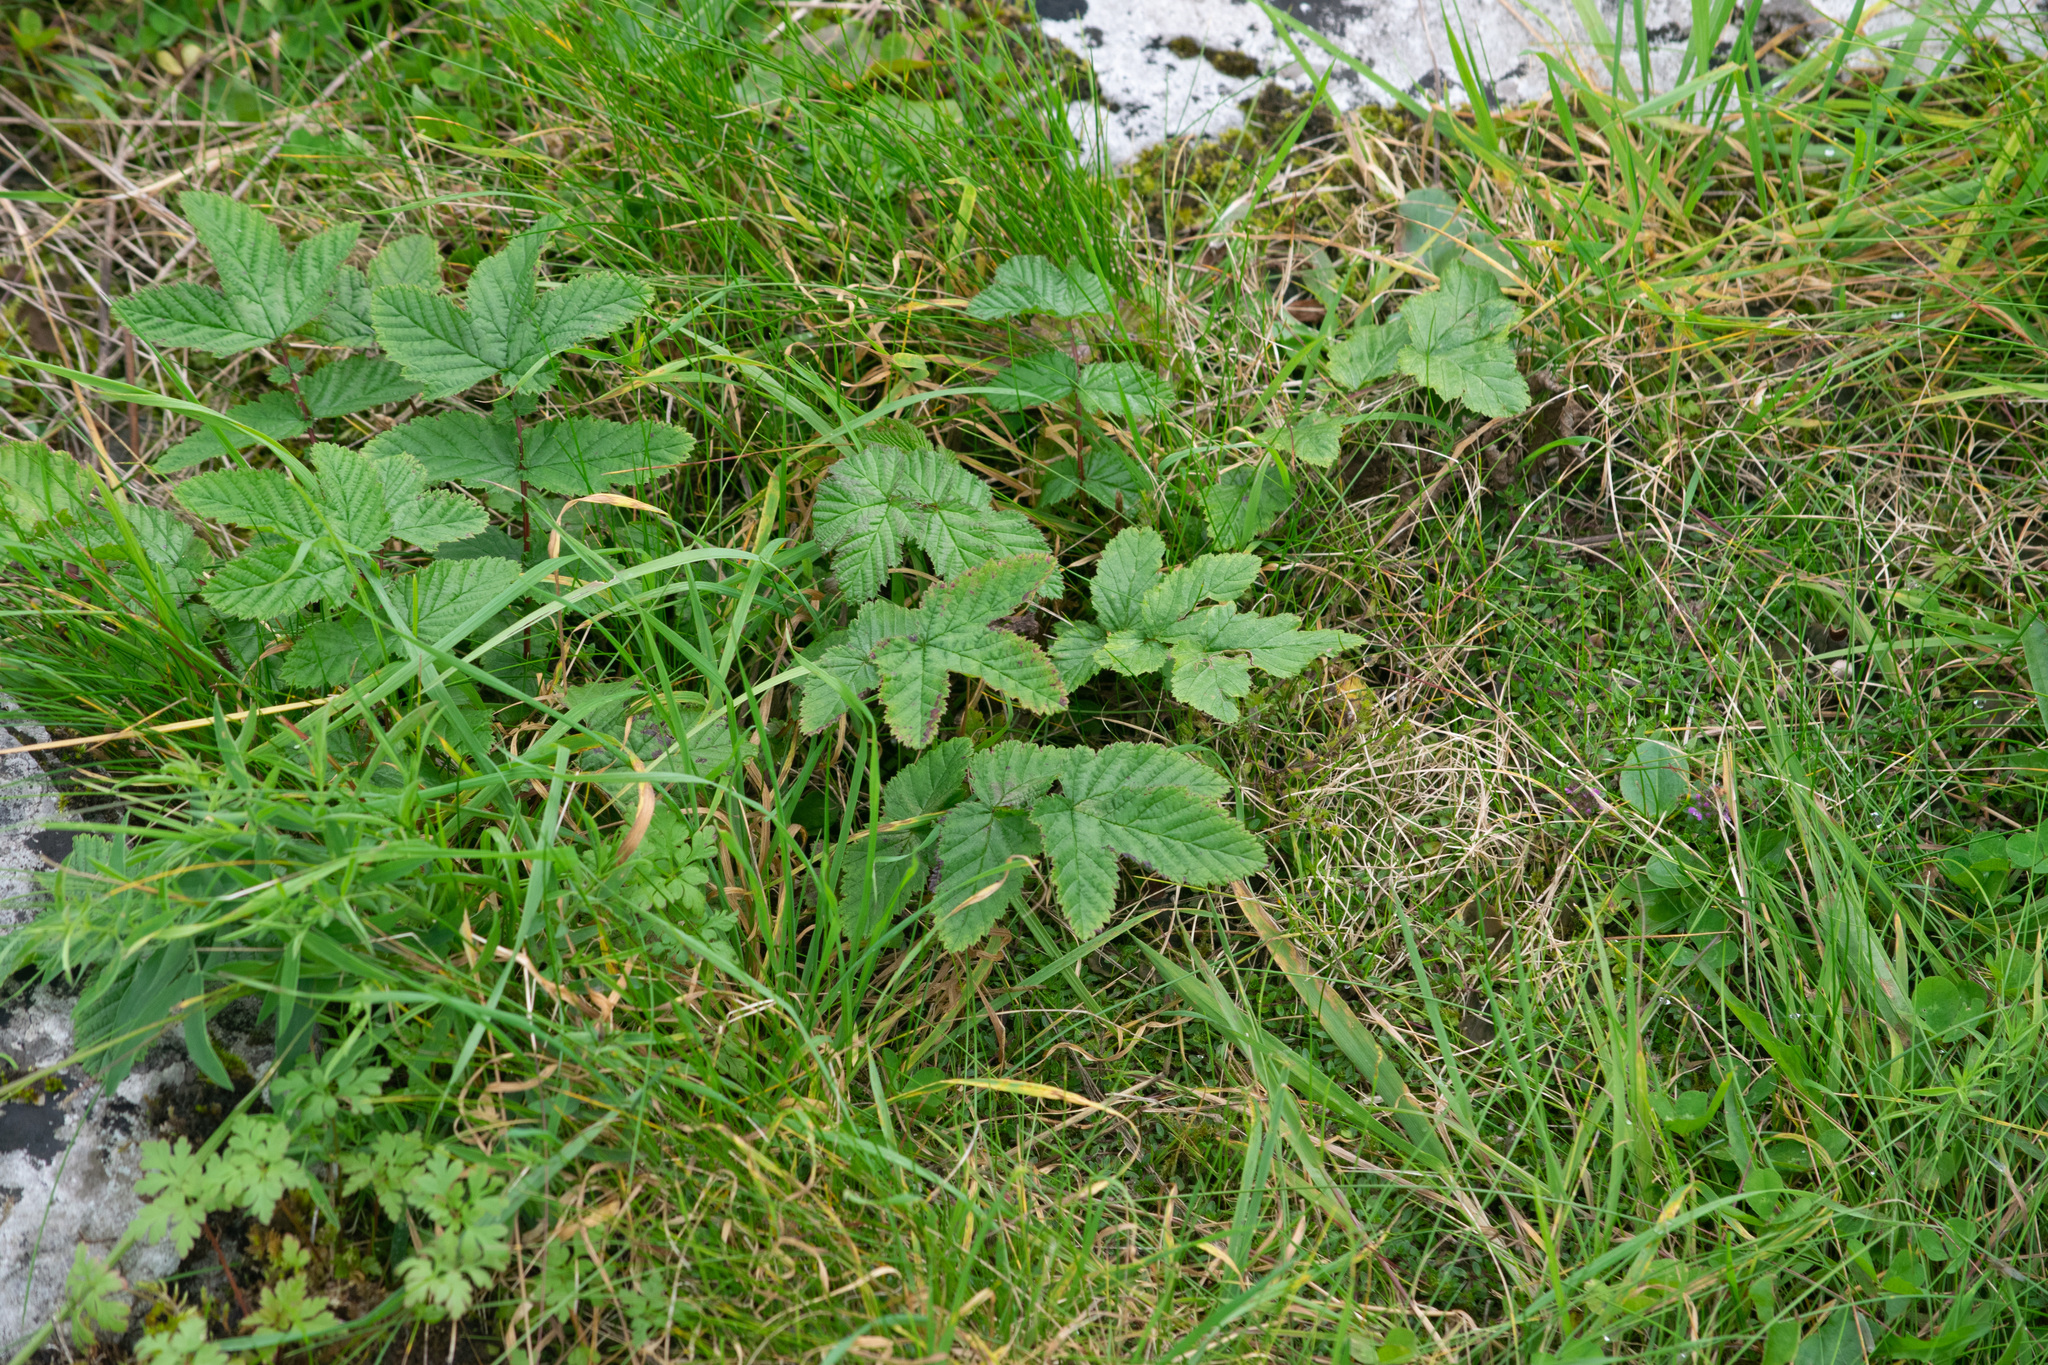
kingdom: Plantae
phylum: Tracheophyta
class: Magnoliopsida
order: Rosales
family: Rosaceae
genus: Filipendula
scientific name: Filipendula ulmaria
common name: Meadowsweet
